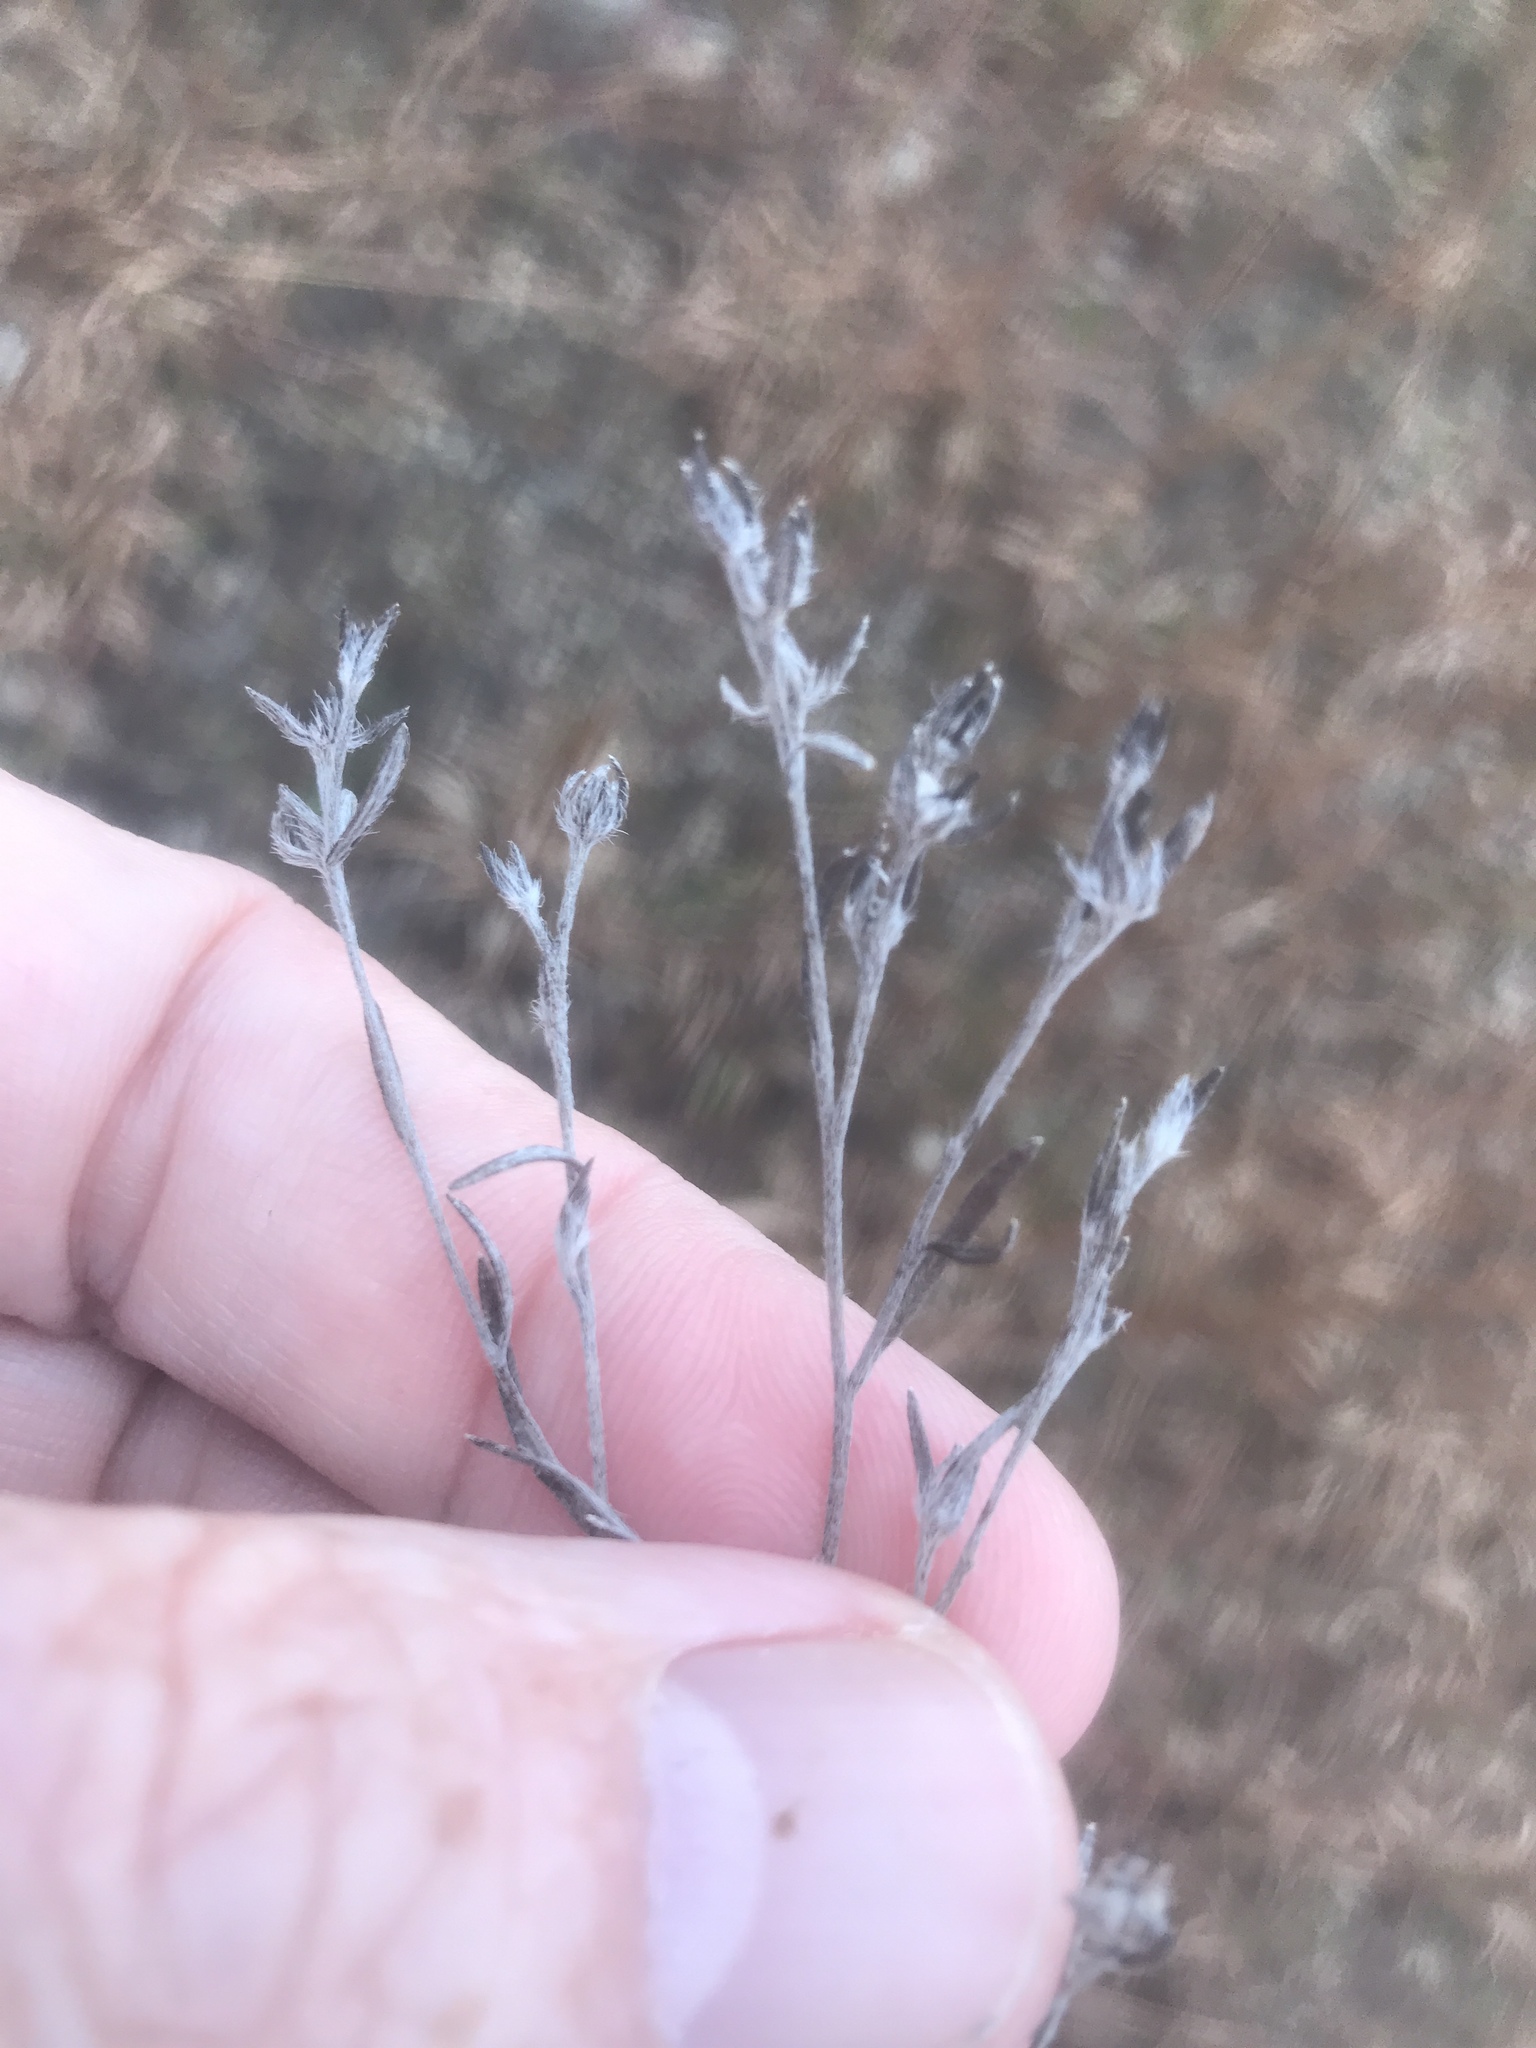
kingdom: Plantae
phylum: Tracheophyta
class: Magnoliopsida
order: Boraginales
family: Heliotropiaceae
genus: Euploca
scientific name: Euploca tenella
